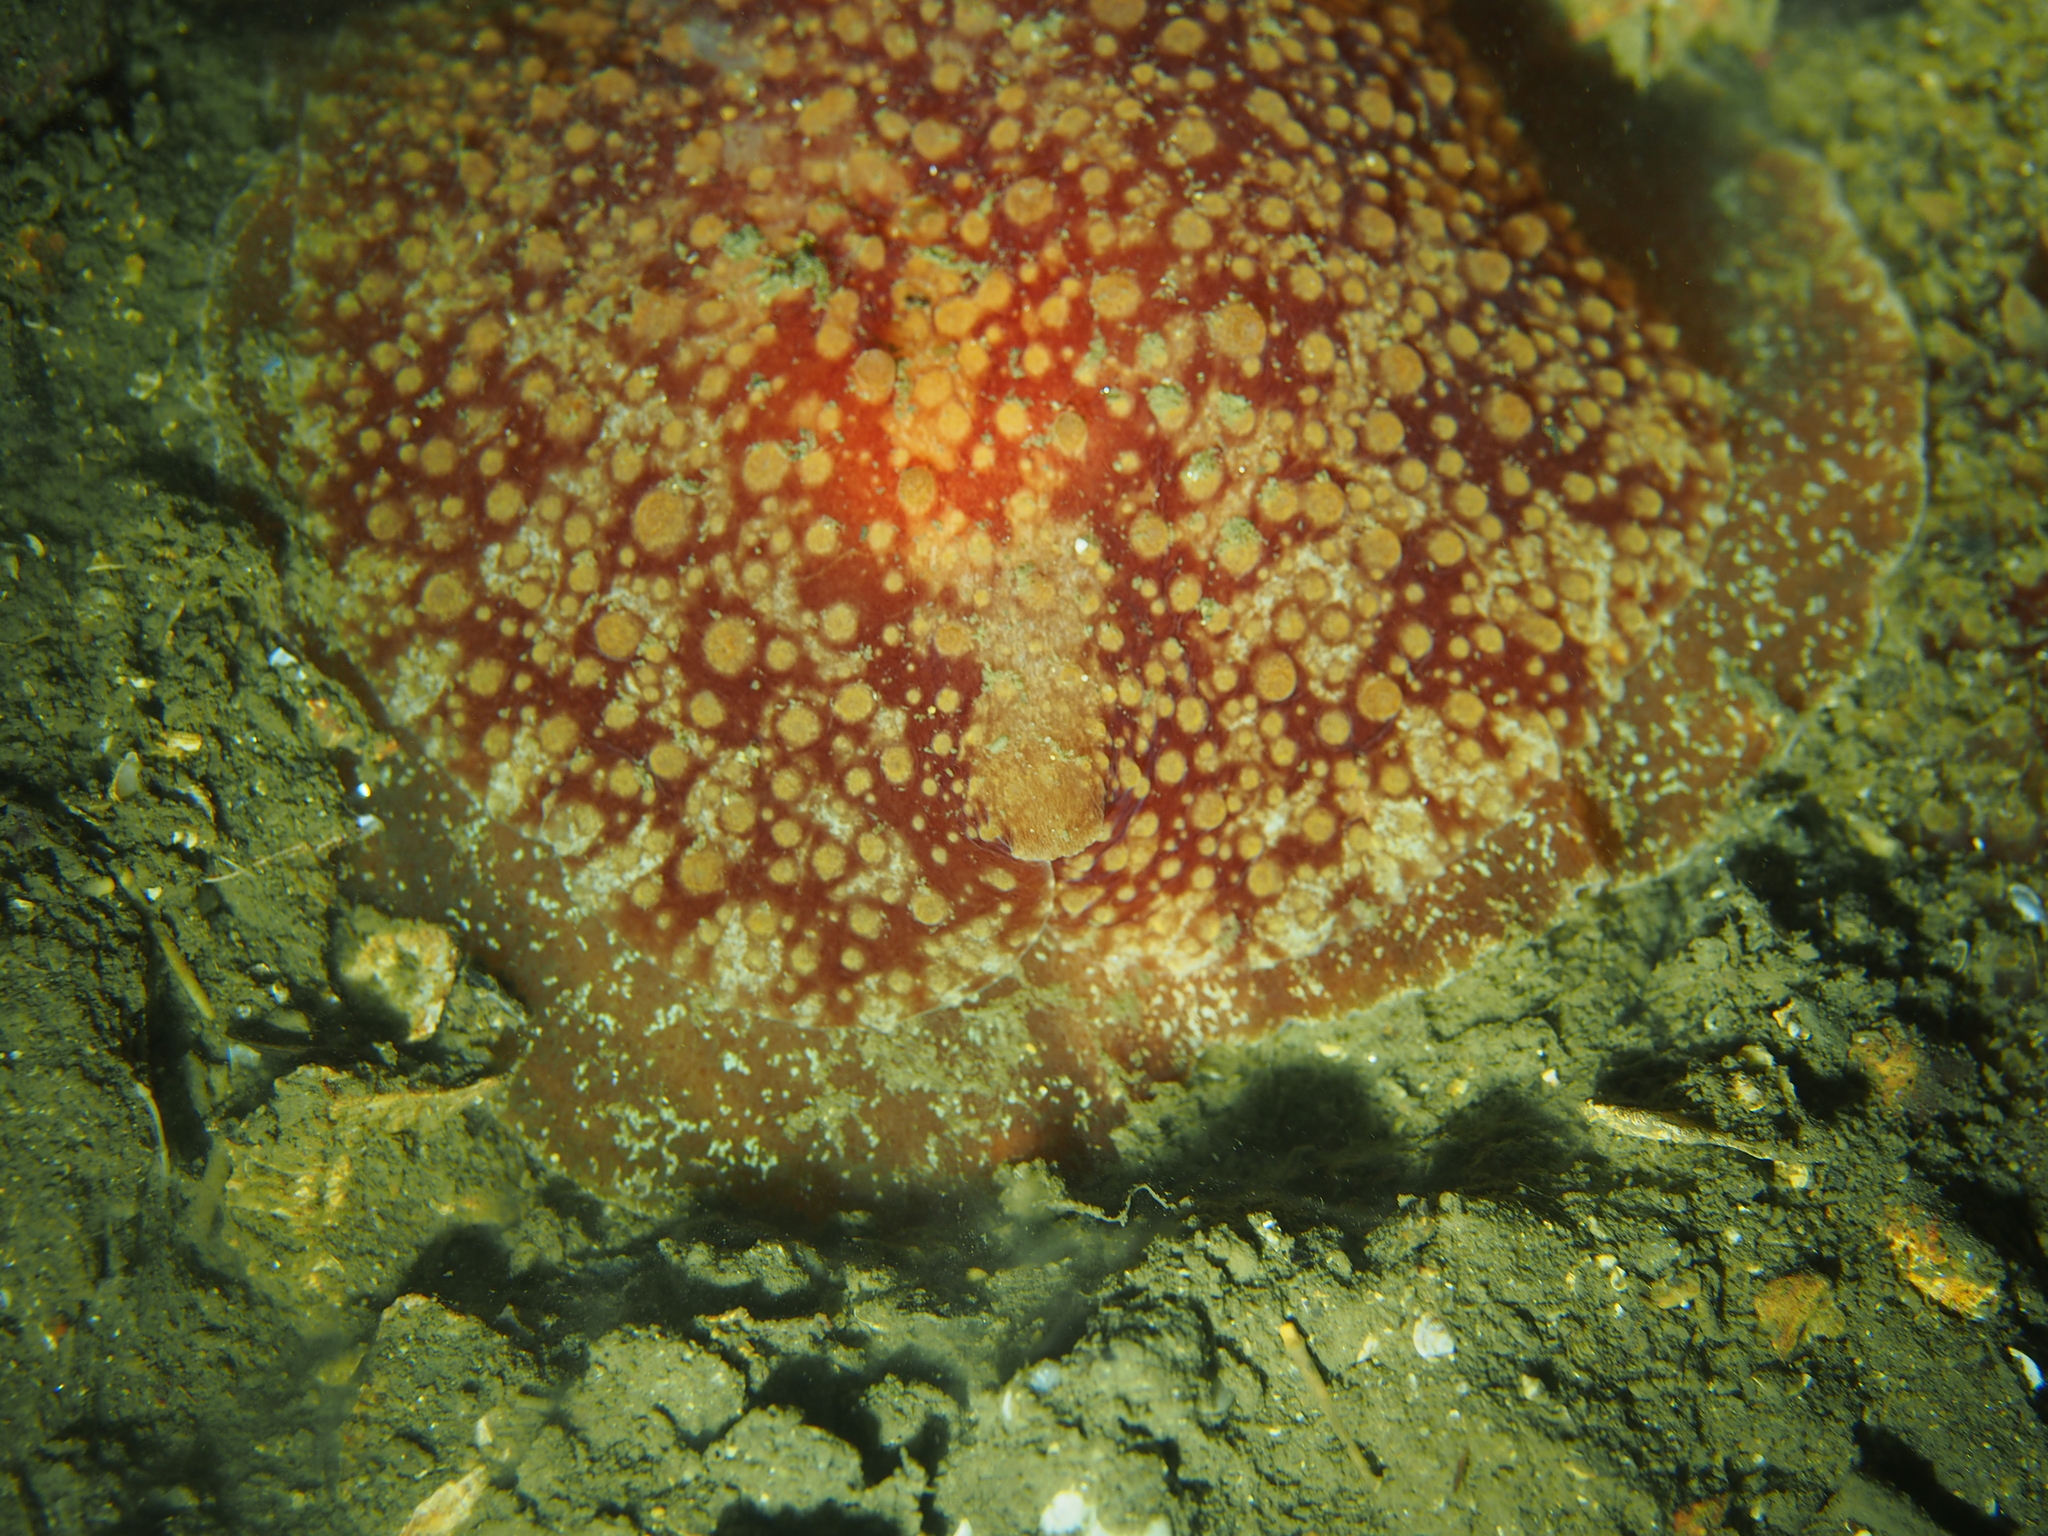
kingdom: Animalia
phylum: Mollusca
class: Gastropoda
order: Pleurobranchida
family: Pleurobranchidae
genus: Pleurobranchus
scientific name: Pleurobranchus membranaceus
